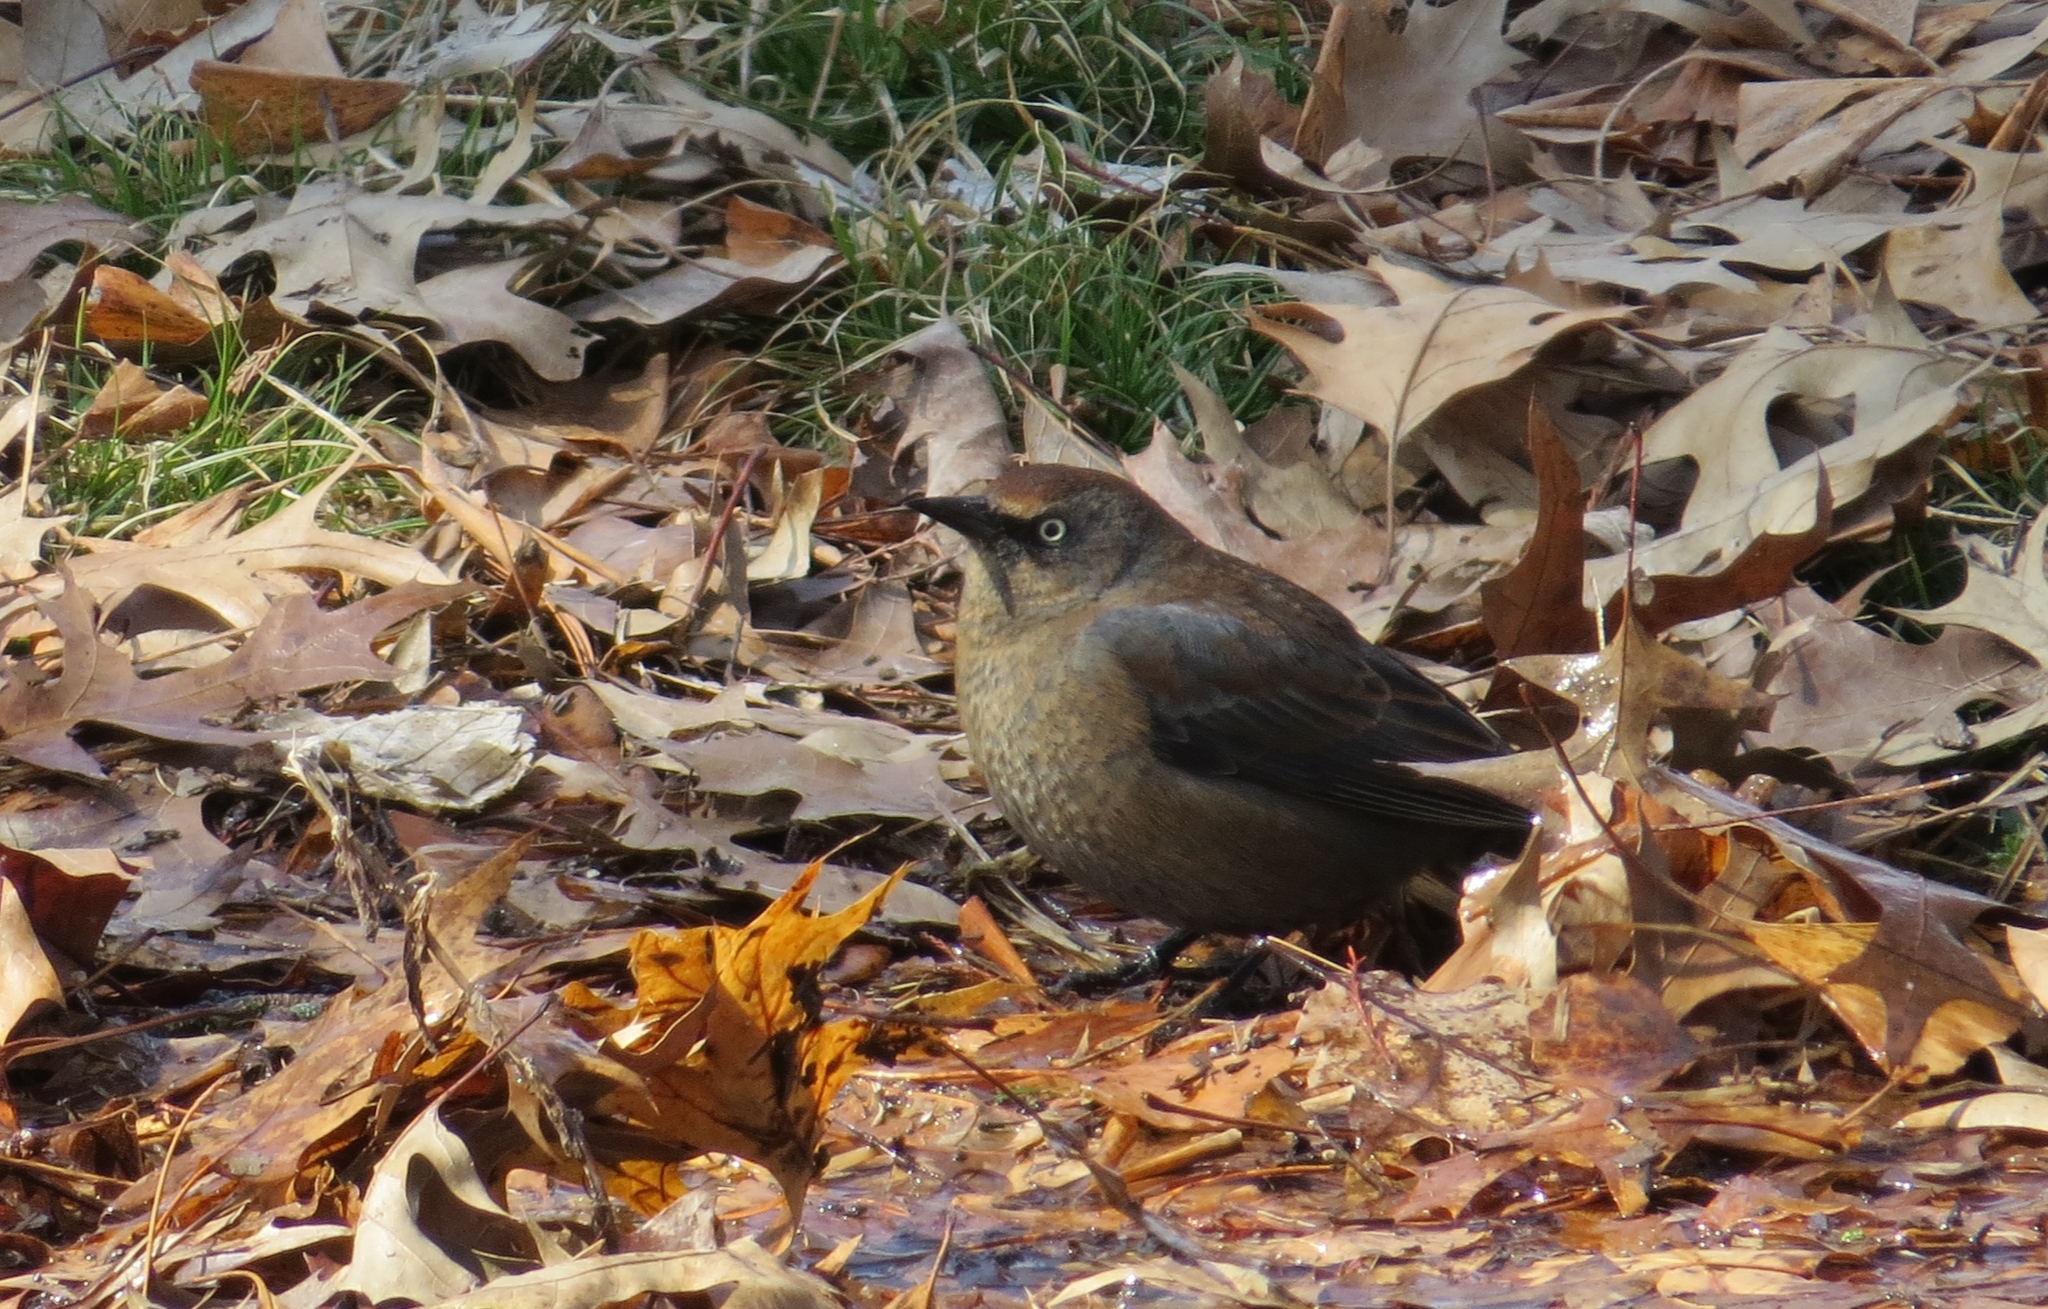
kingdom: Animalia
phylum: Chordata
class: Aves
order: Passeriformes
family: Icteridae
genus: Euphagus
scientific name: Euphagus carolinus
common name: Rusty blackbird
